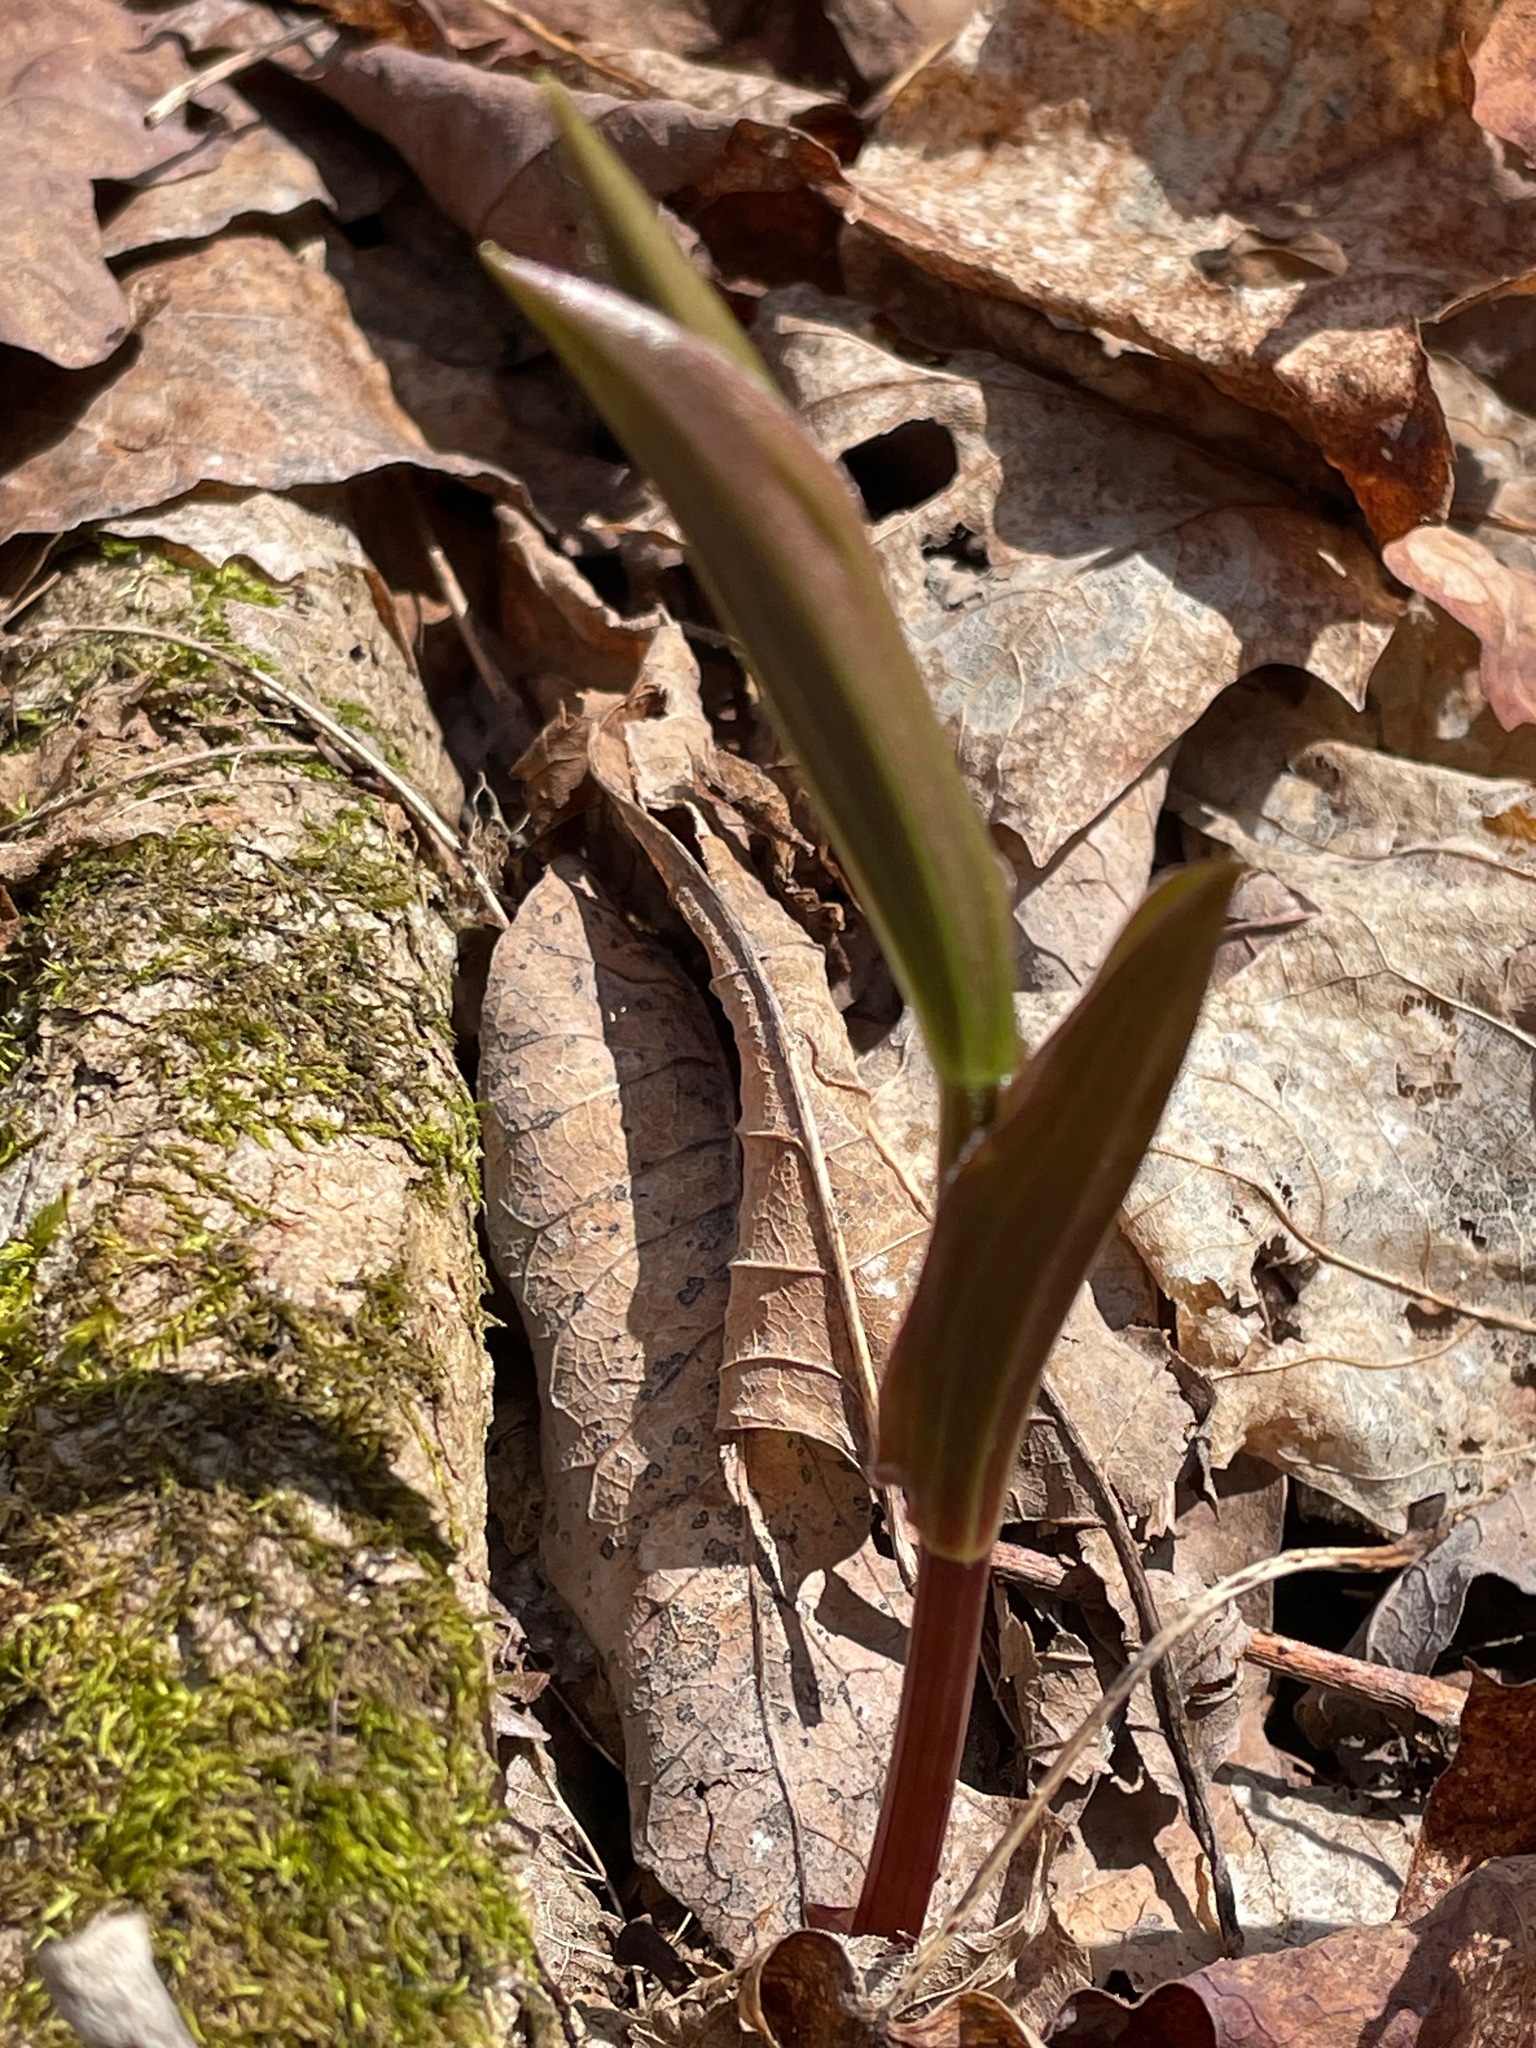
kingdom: Plantae
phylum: Tracheophyta
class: Liliopsida
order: Liliales
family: Liliaceae
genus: Streptopus
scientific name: Streptopus lanceolatus
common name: Rose mandarin
